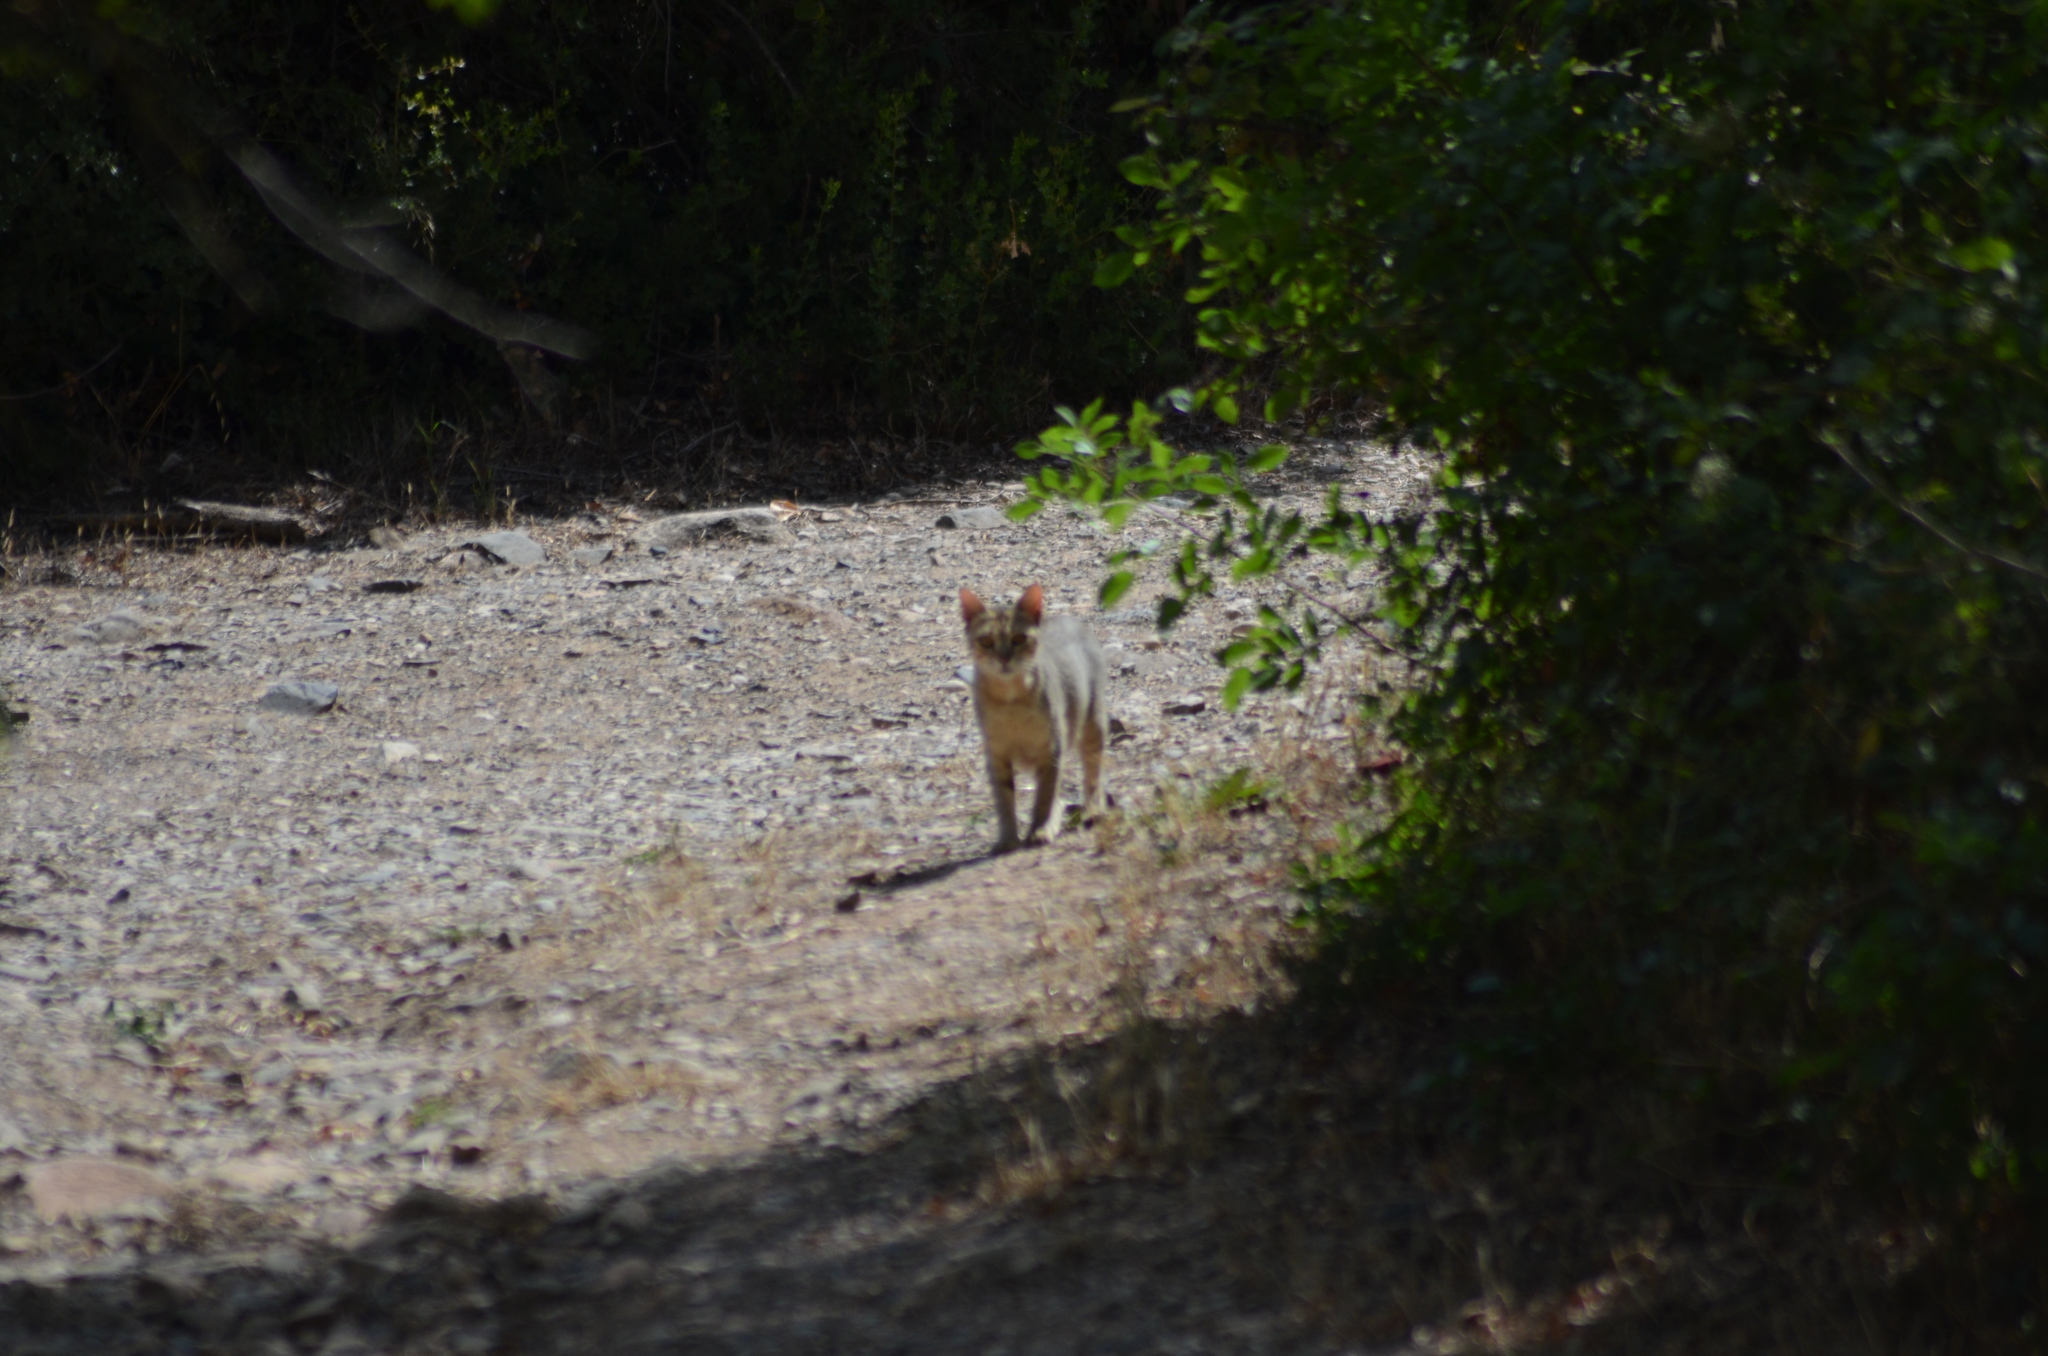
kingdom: Animalia
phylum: Chordata
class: Mammalia
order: Carnivora
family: Felidae
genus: Felis
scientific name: Felis catus
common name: Domestic cat
